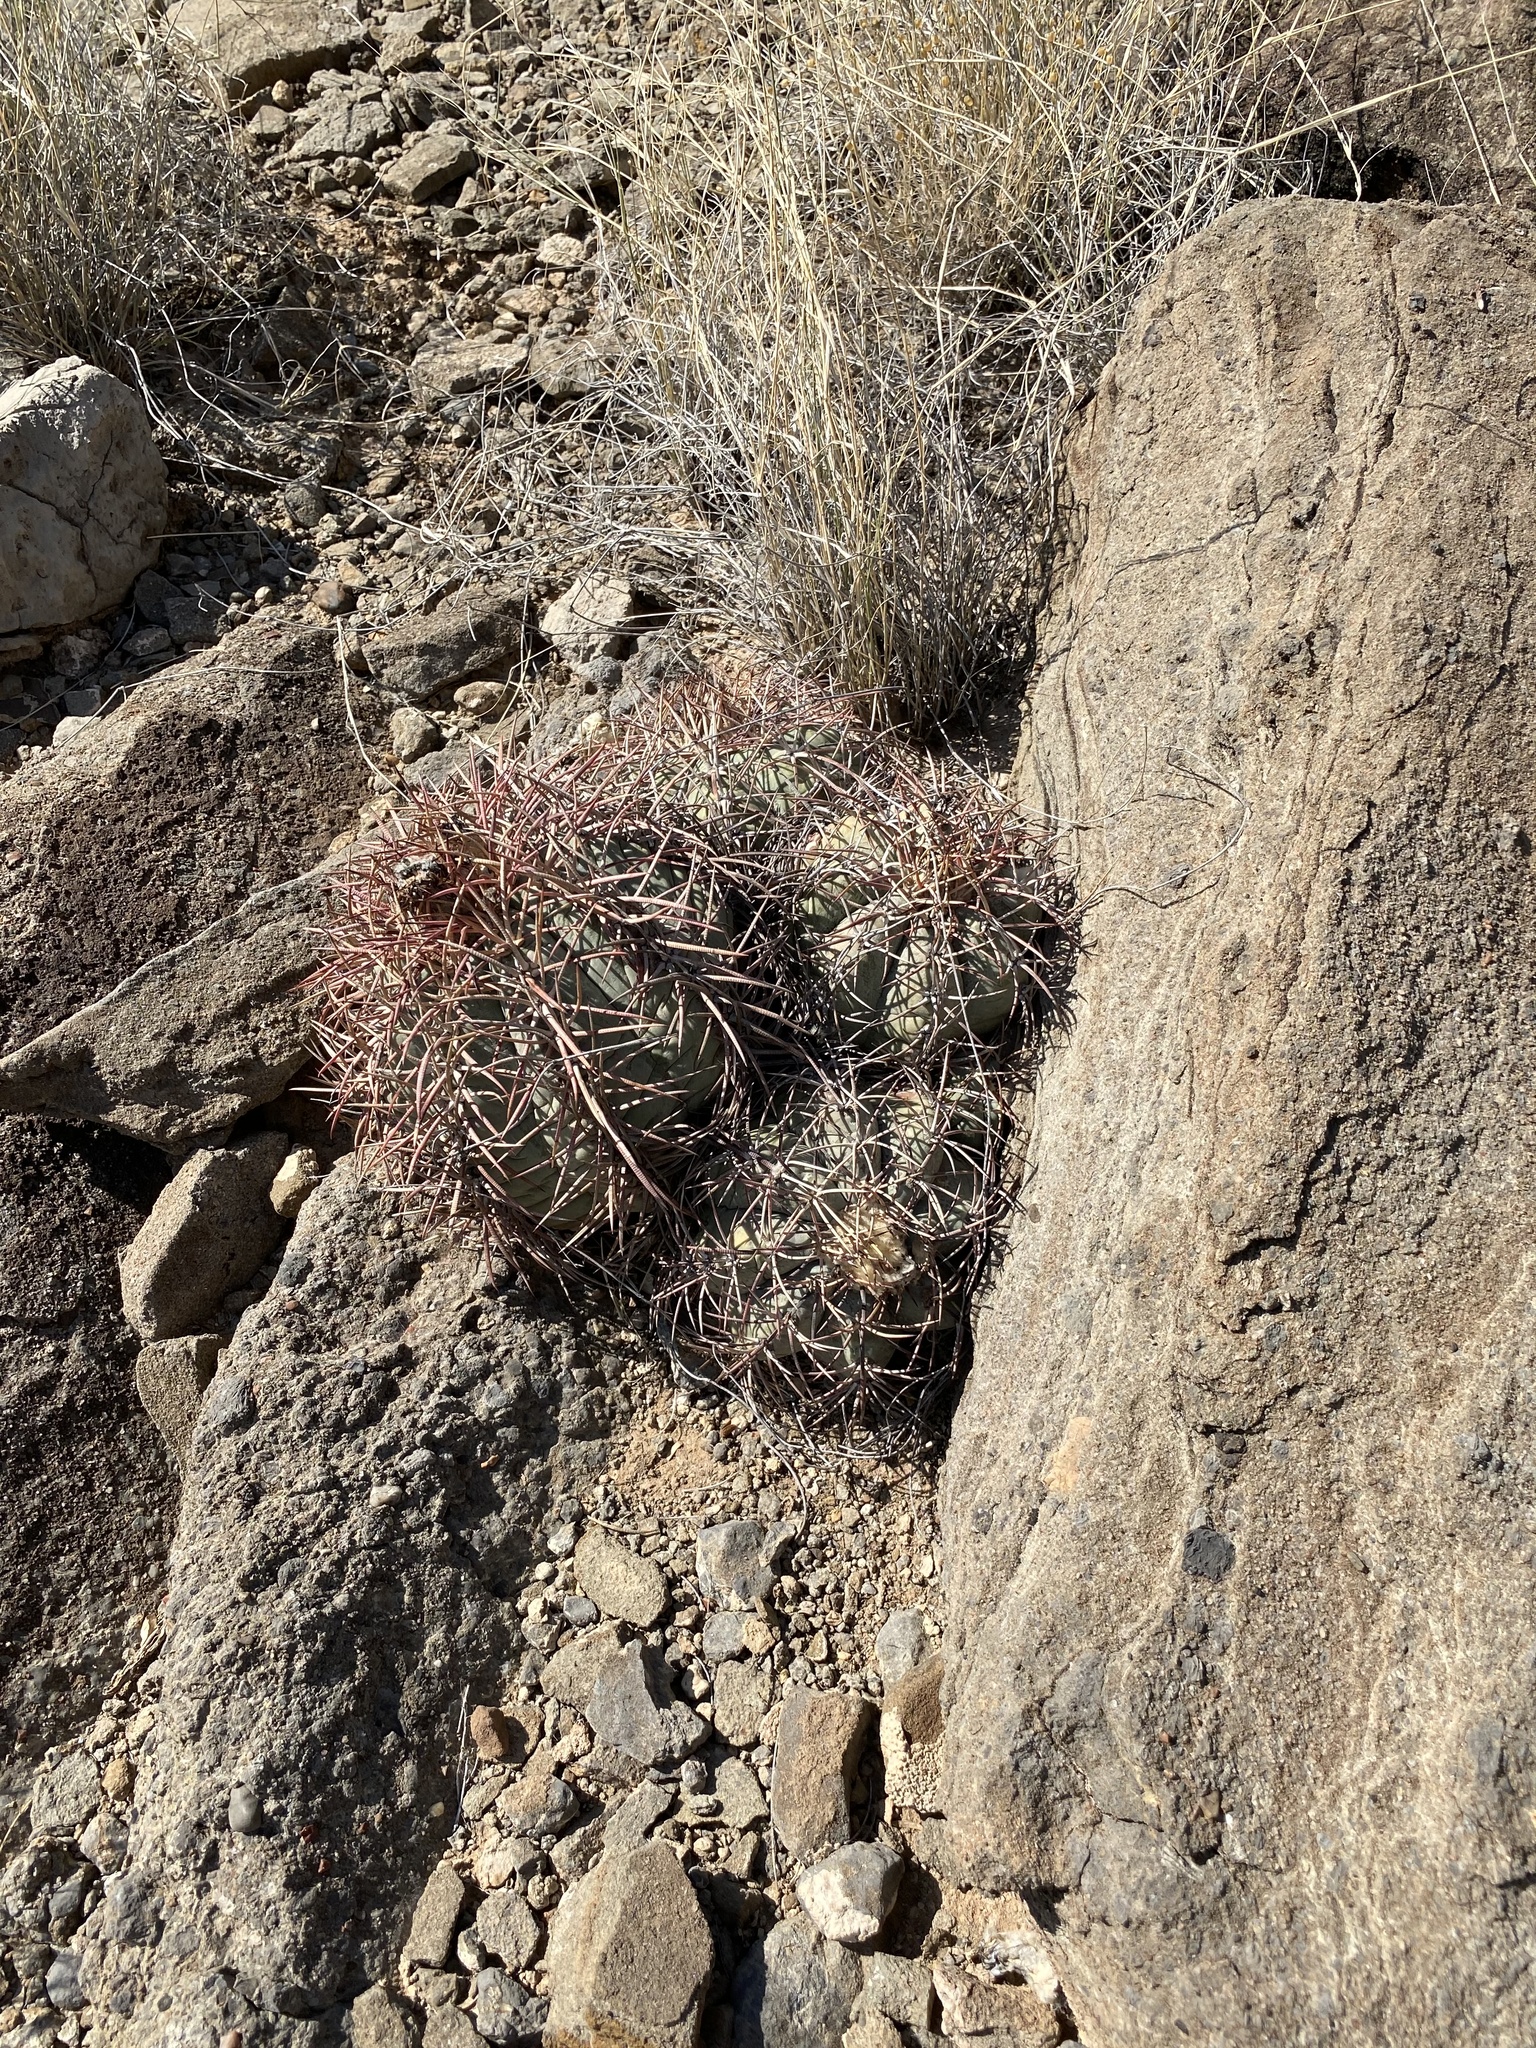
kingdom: Plantae
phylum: Tracheophyta
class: Magnoliopsida
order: Caryophyllales
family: Cactaceae
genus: Echinocactus
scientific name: Echinocactus horizonthalonius
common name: Devilshead
